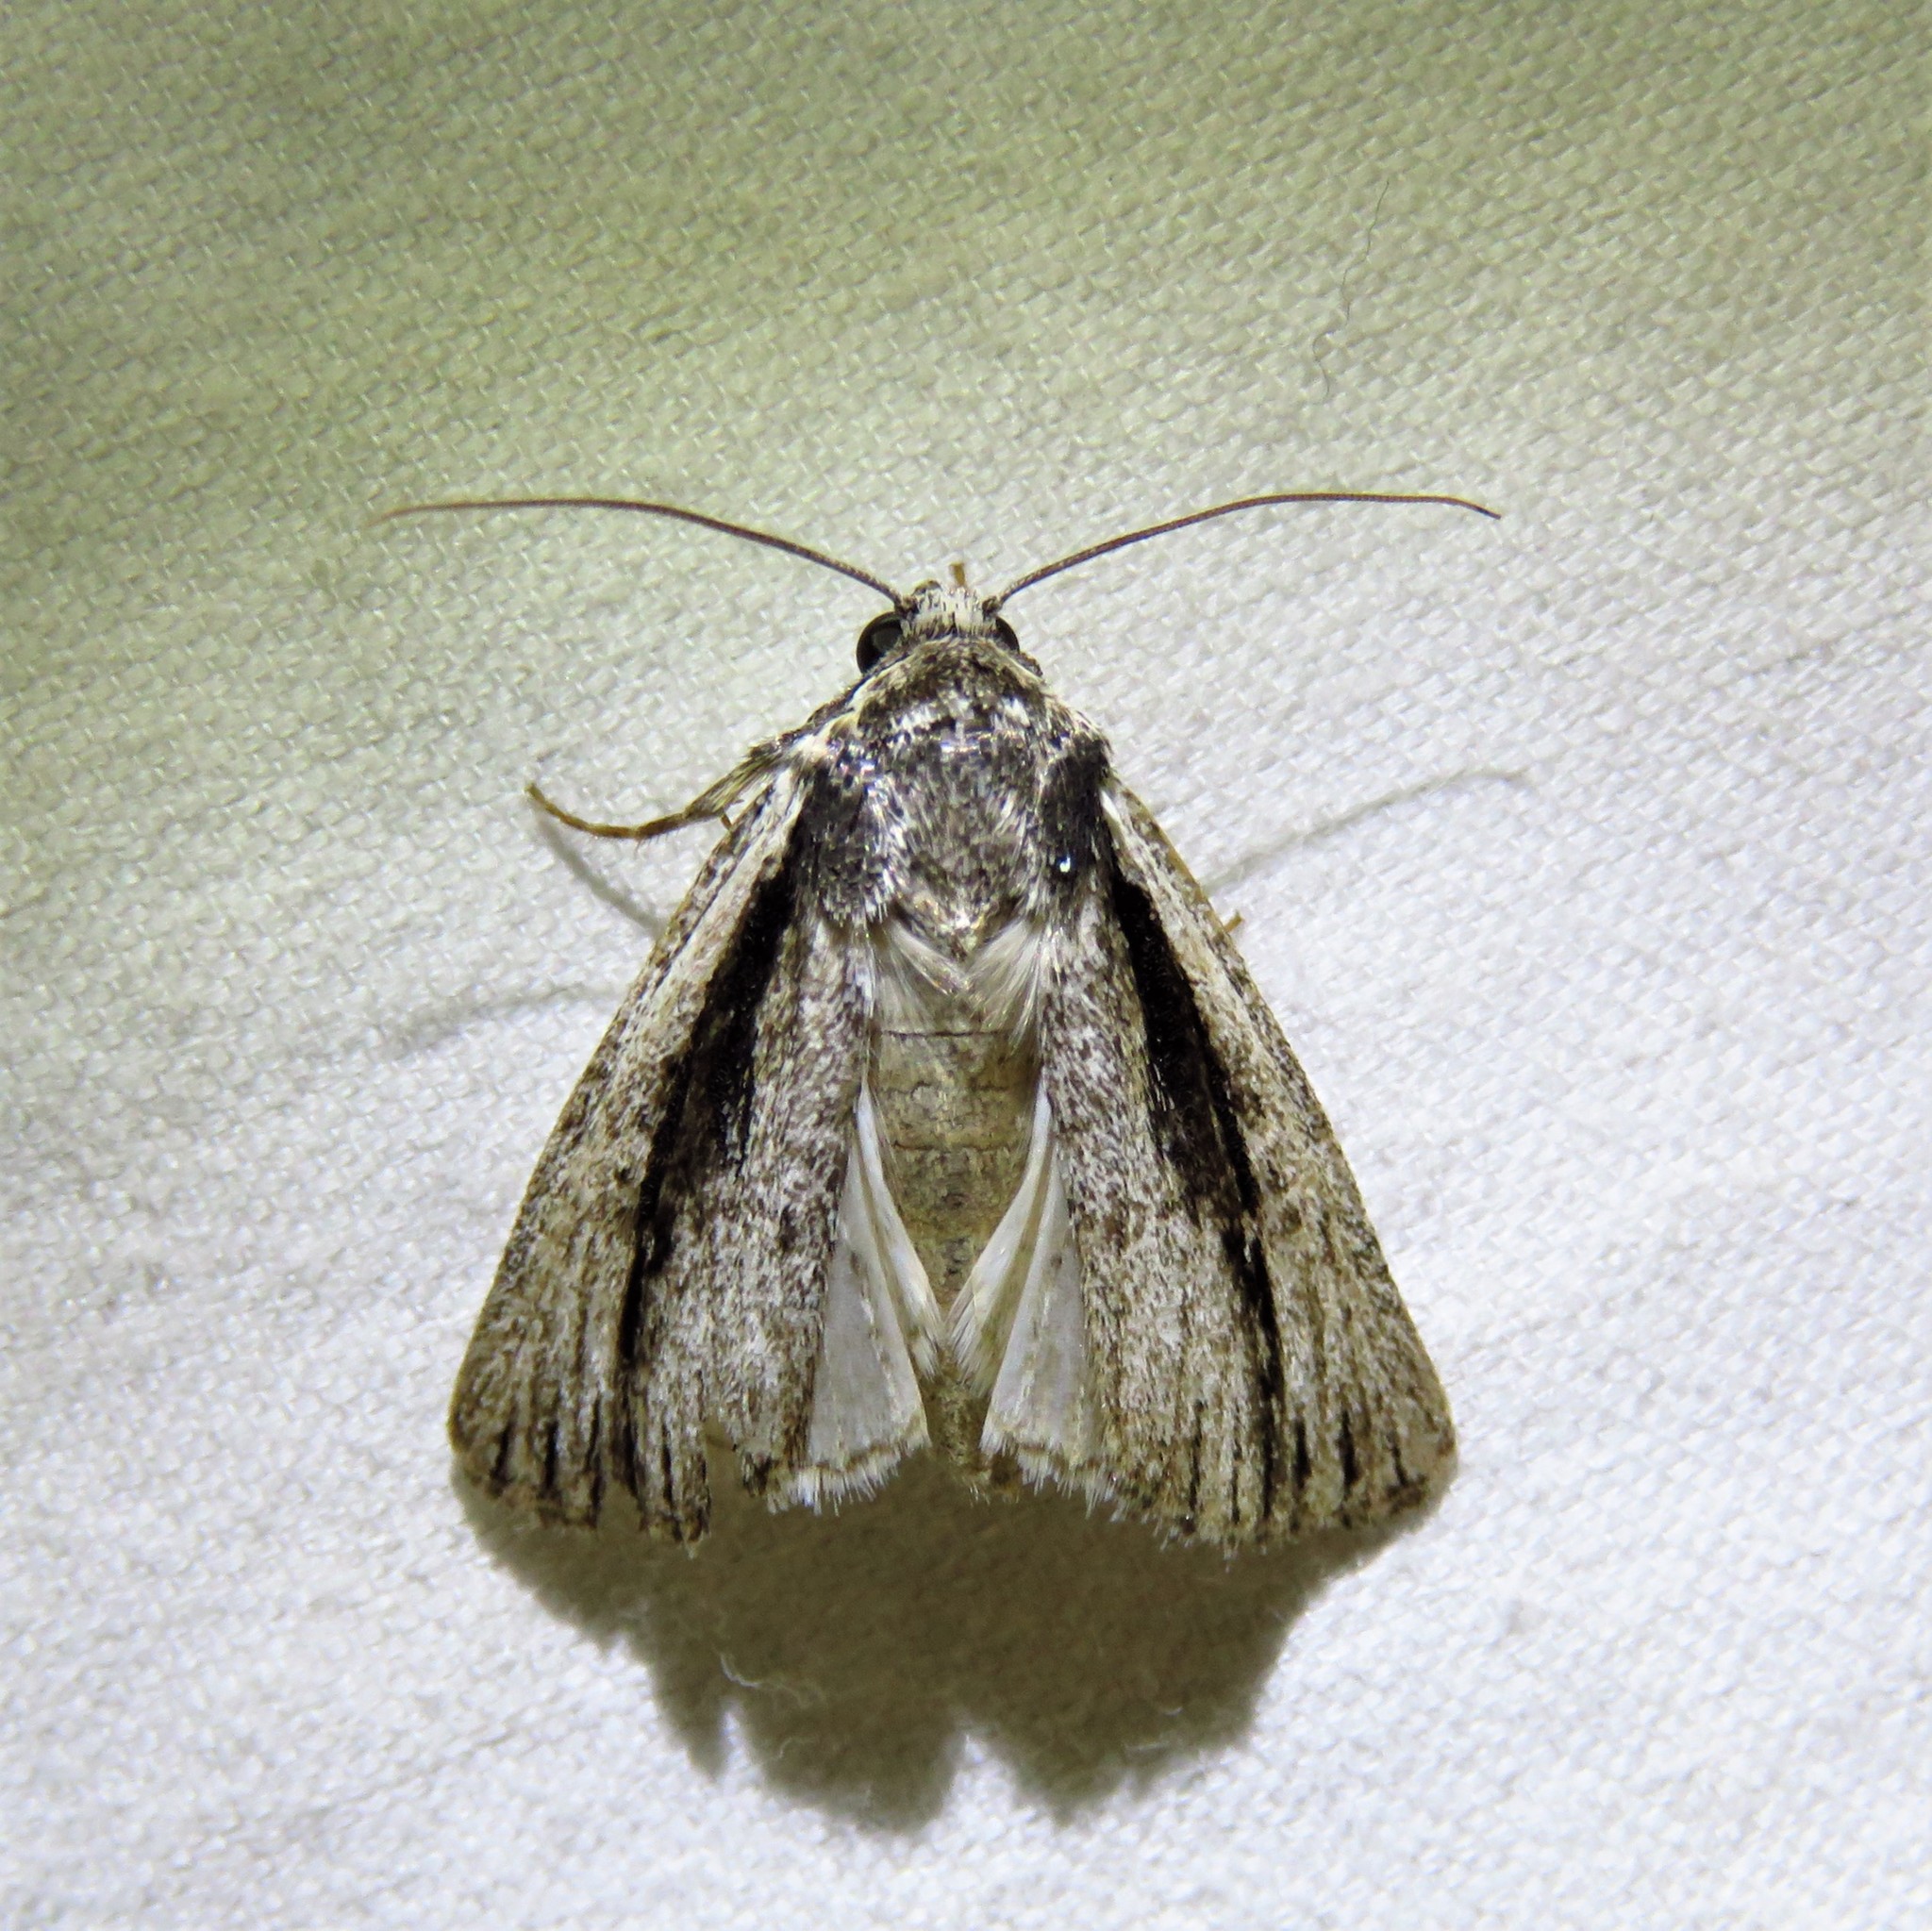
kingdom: Animalia
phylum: Arthropoda
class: Insecta
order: Lepidoptera
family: Noctuidae
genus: Sympistis
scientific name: Sympistis atricollaris
